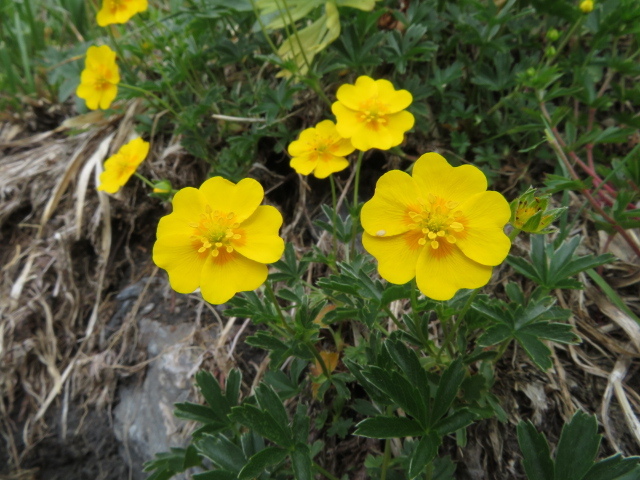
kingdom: Plantae
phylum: Tracheophyta
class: Magnoliopsida
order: Rosales
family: Rosaceae
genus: Potentilla
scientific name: Potentilla aurea
